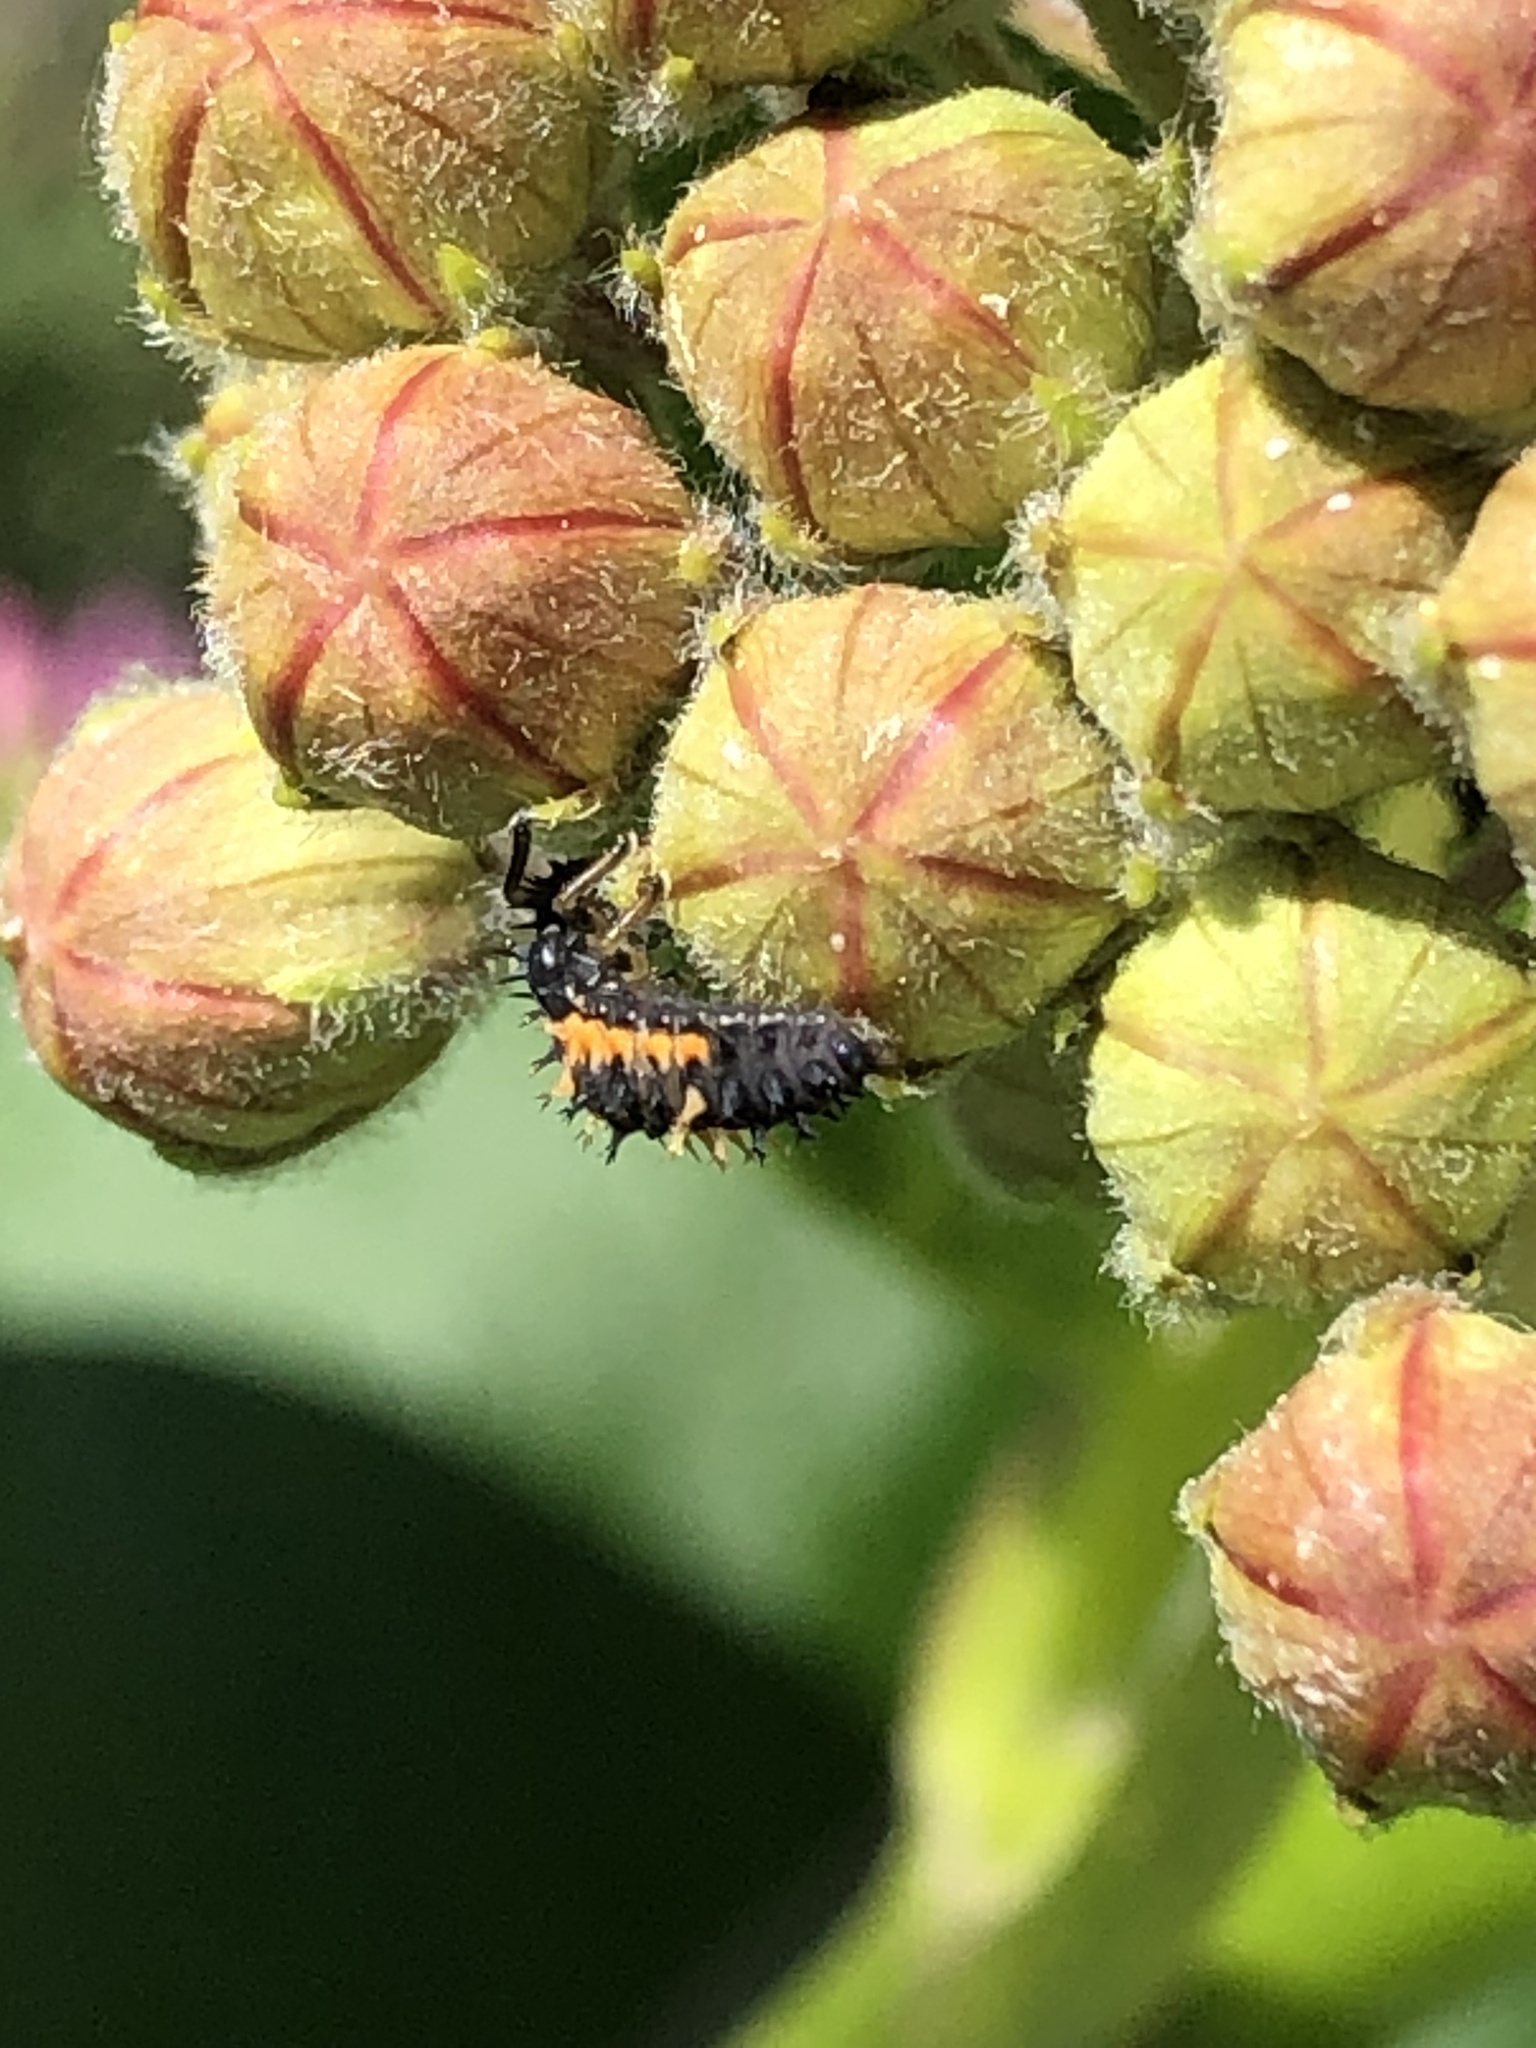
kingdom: Animalia
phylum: Arthropoda
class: Insecta
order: Coleoptera
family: Coccinellidae
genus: Harmonia
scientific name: Harmonia axyridis
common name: Harlequin ladybird
